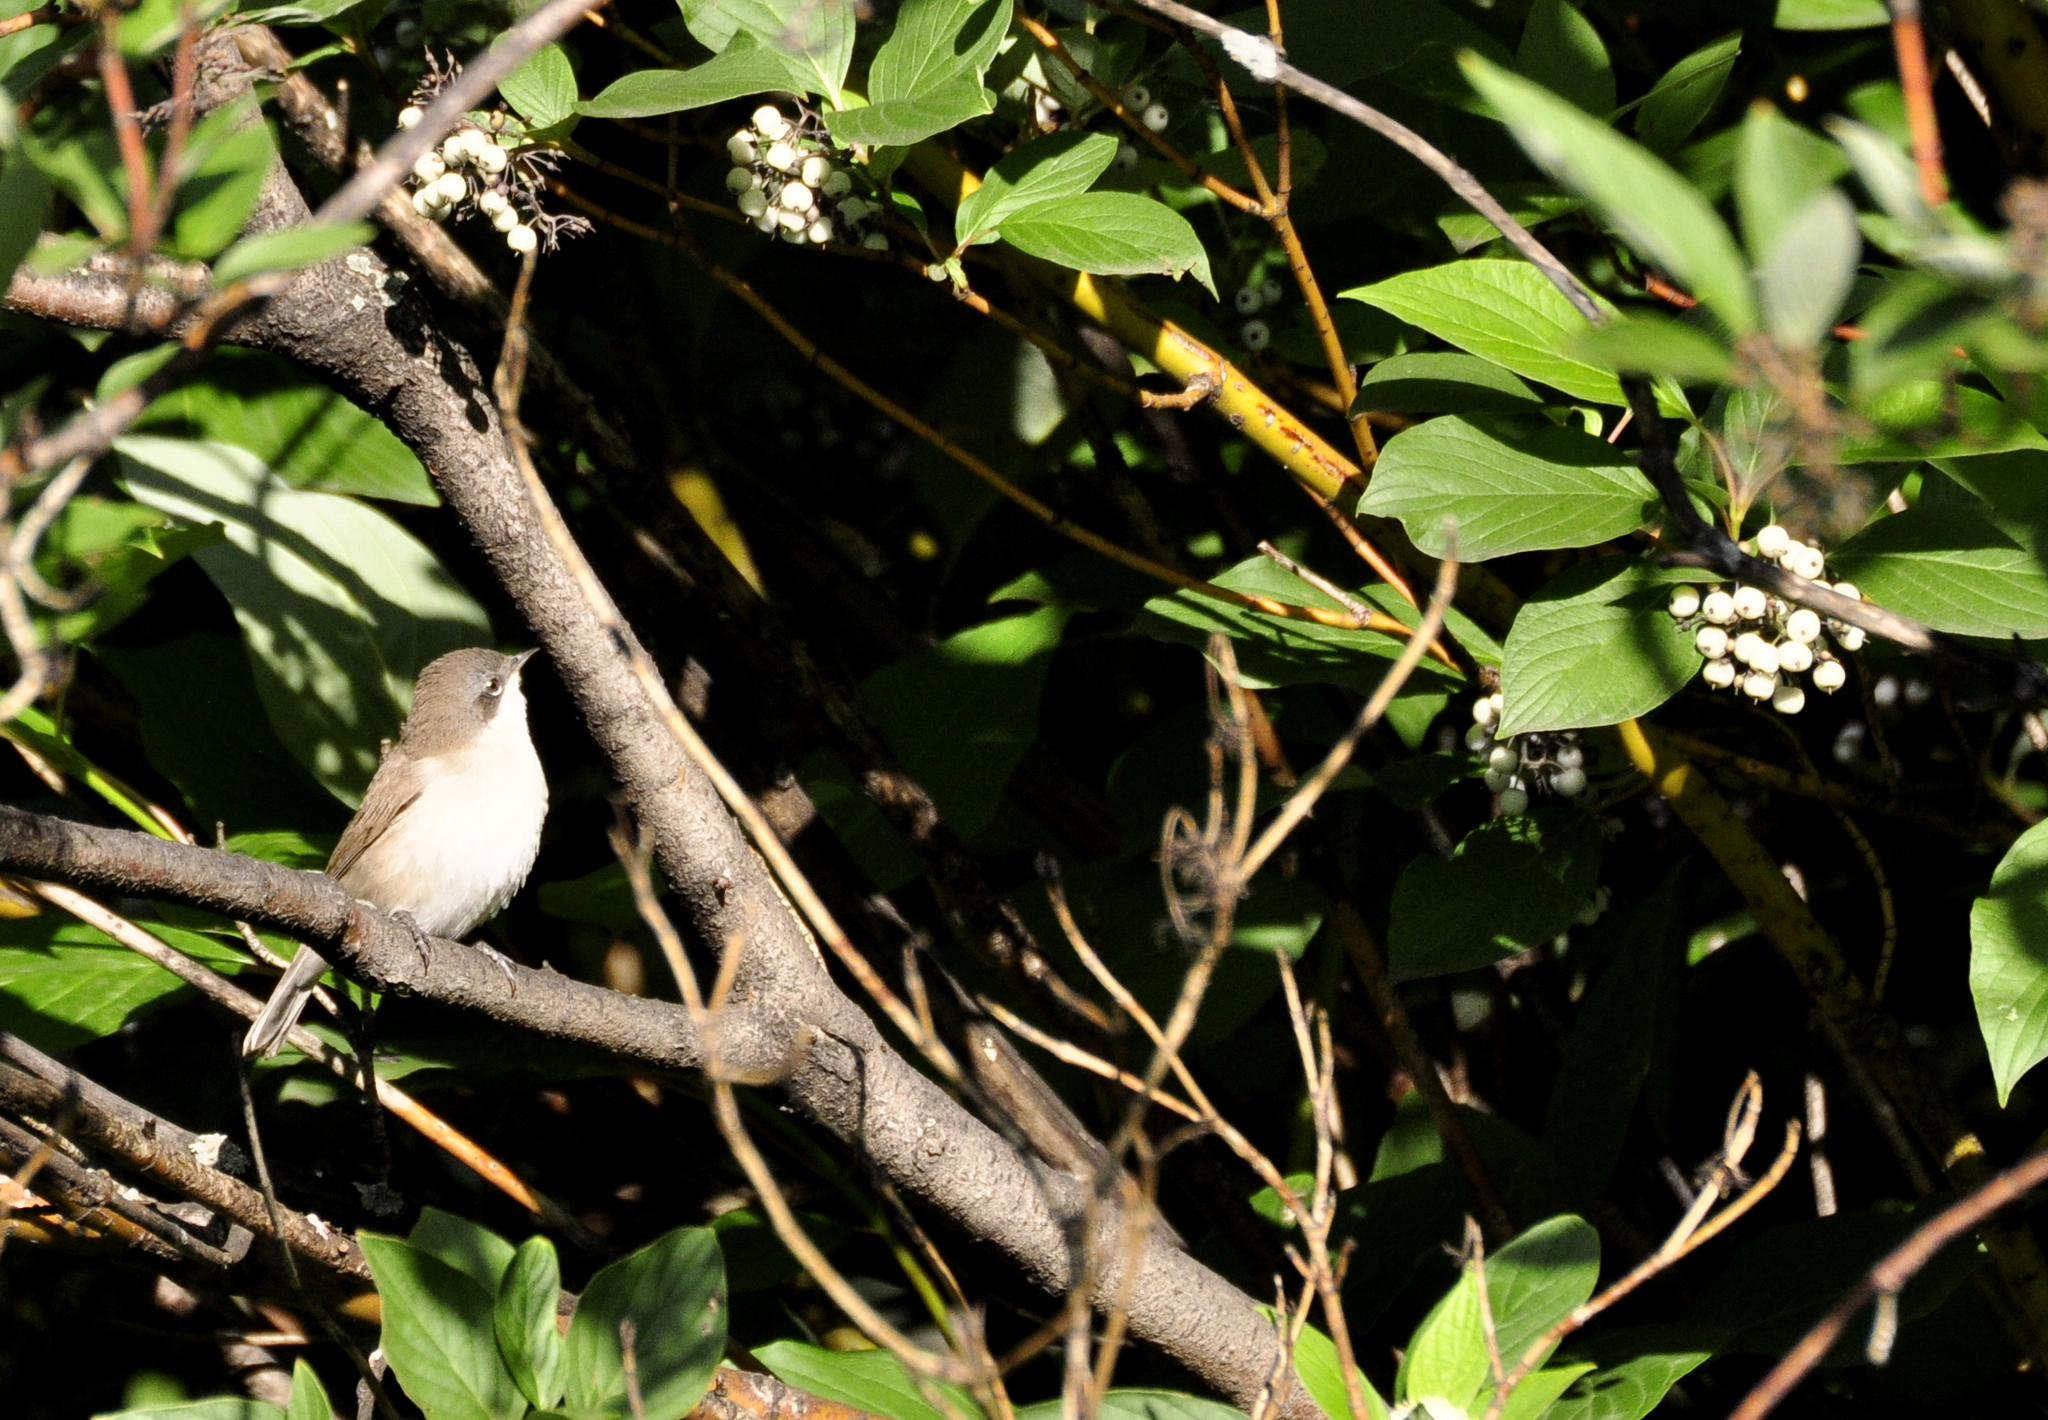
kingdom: Animalia
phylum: Chordata
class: Aves
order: Passeriformes
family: Sylviidae
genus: Sylvia
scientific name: Sylvia curruca
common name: Lesser whitethroat
